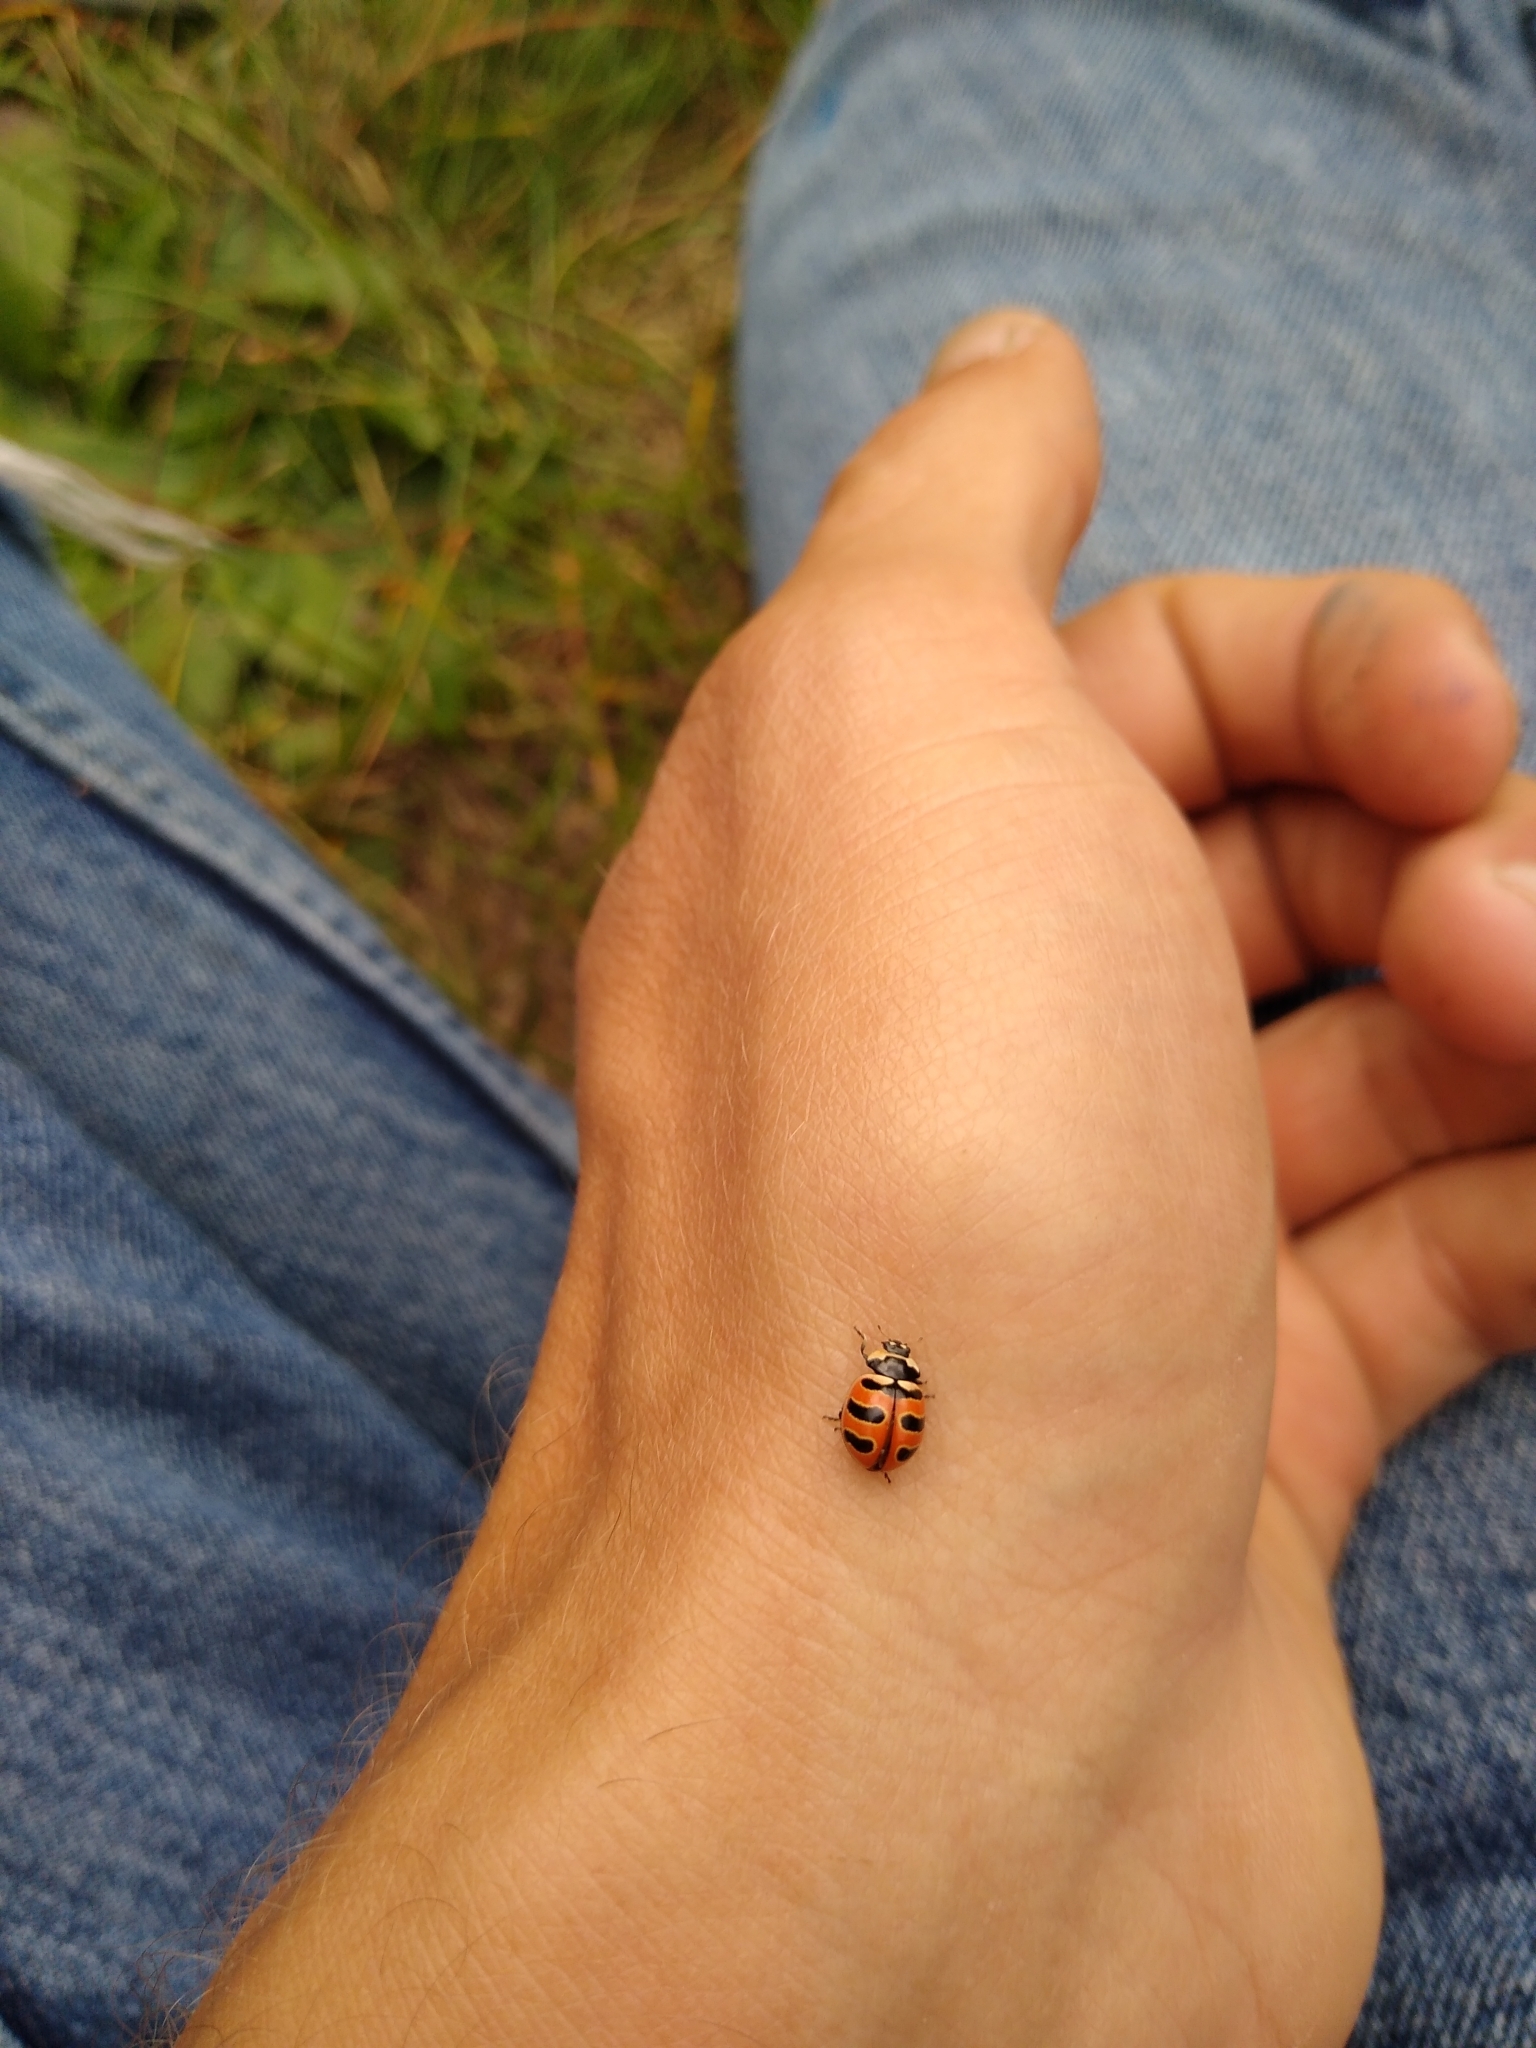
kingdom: Animalia
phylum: Arthropoda
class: Insecta
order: Coleoptera
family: Coccinellidae
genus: Coccinella
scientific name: Coccinella trifasciata
